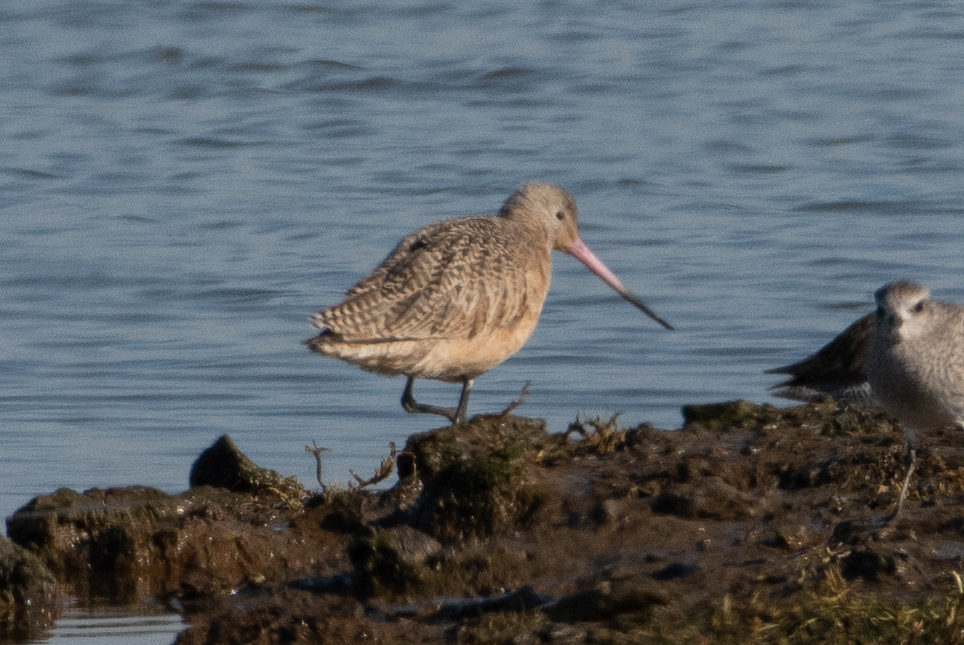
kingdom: Animalia
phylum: Chordata
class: Aves
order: Charadriiformes
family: Scolopacidae
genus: Limosa
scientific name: Limosa fedoa
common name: Marbled godwit
